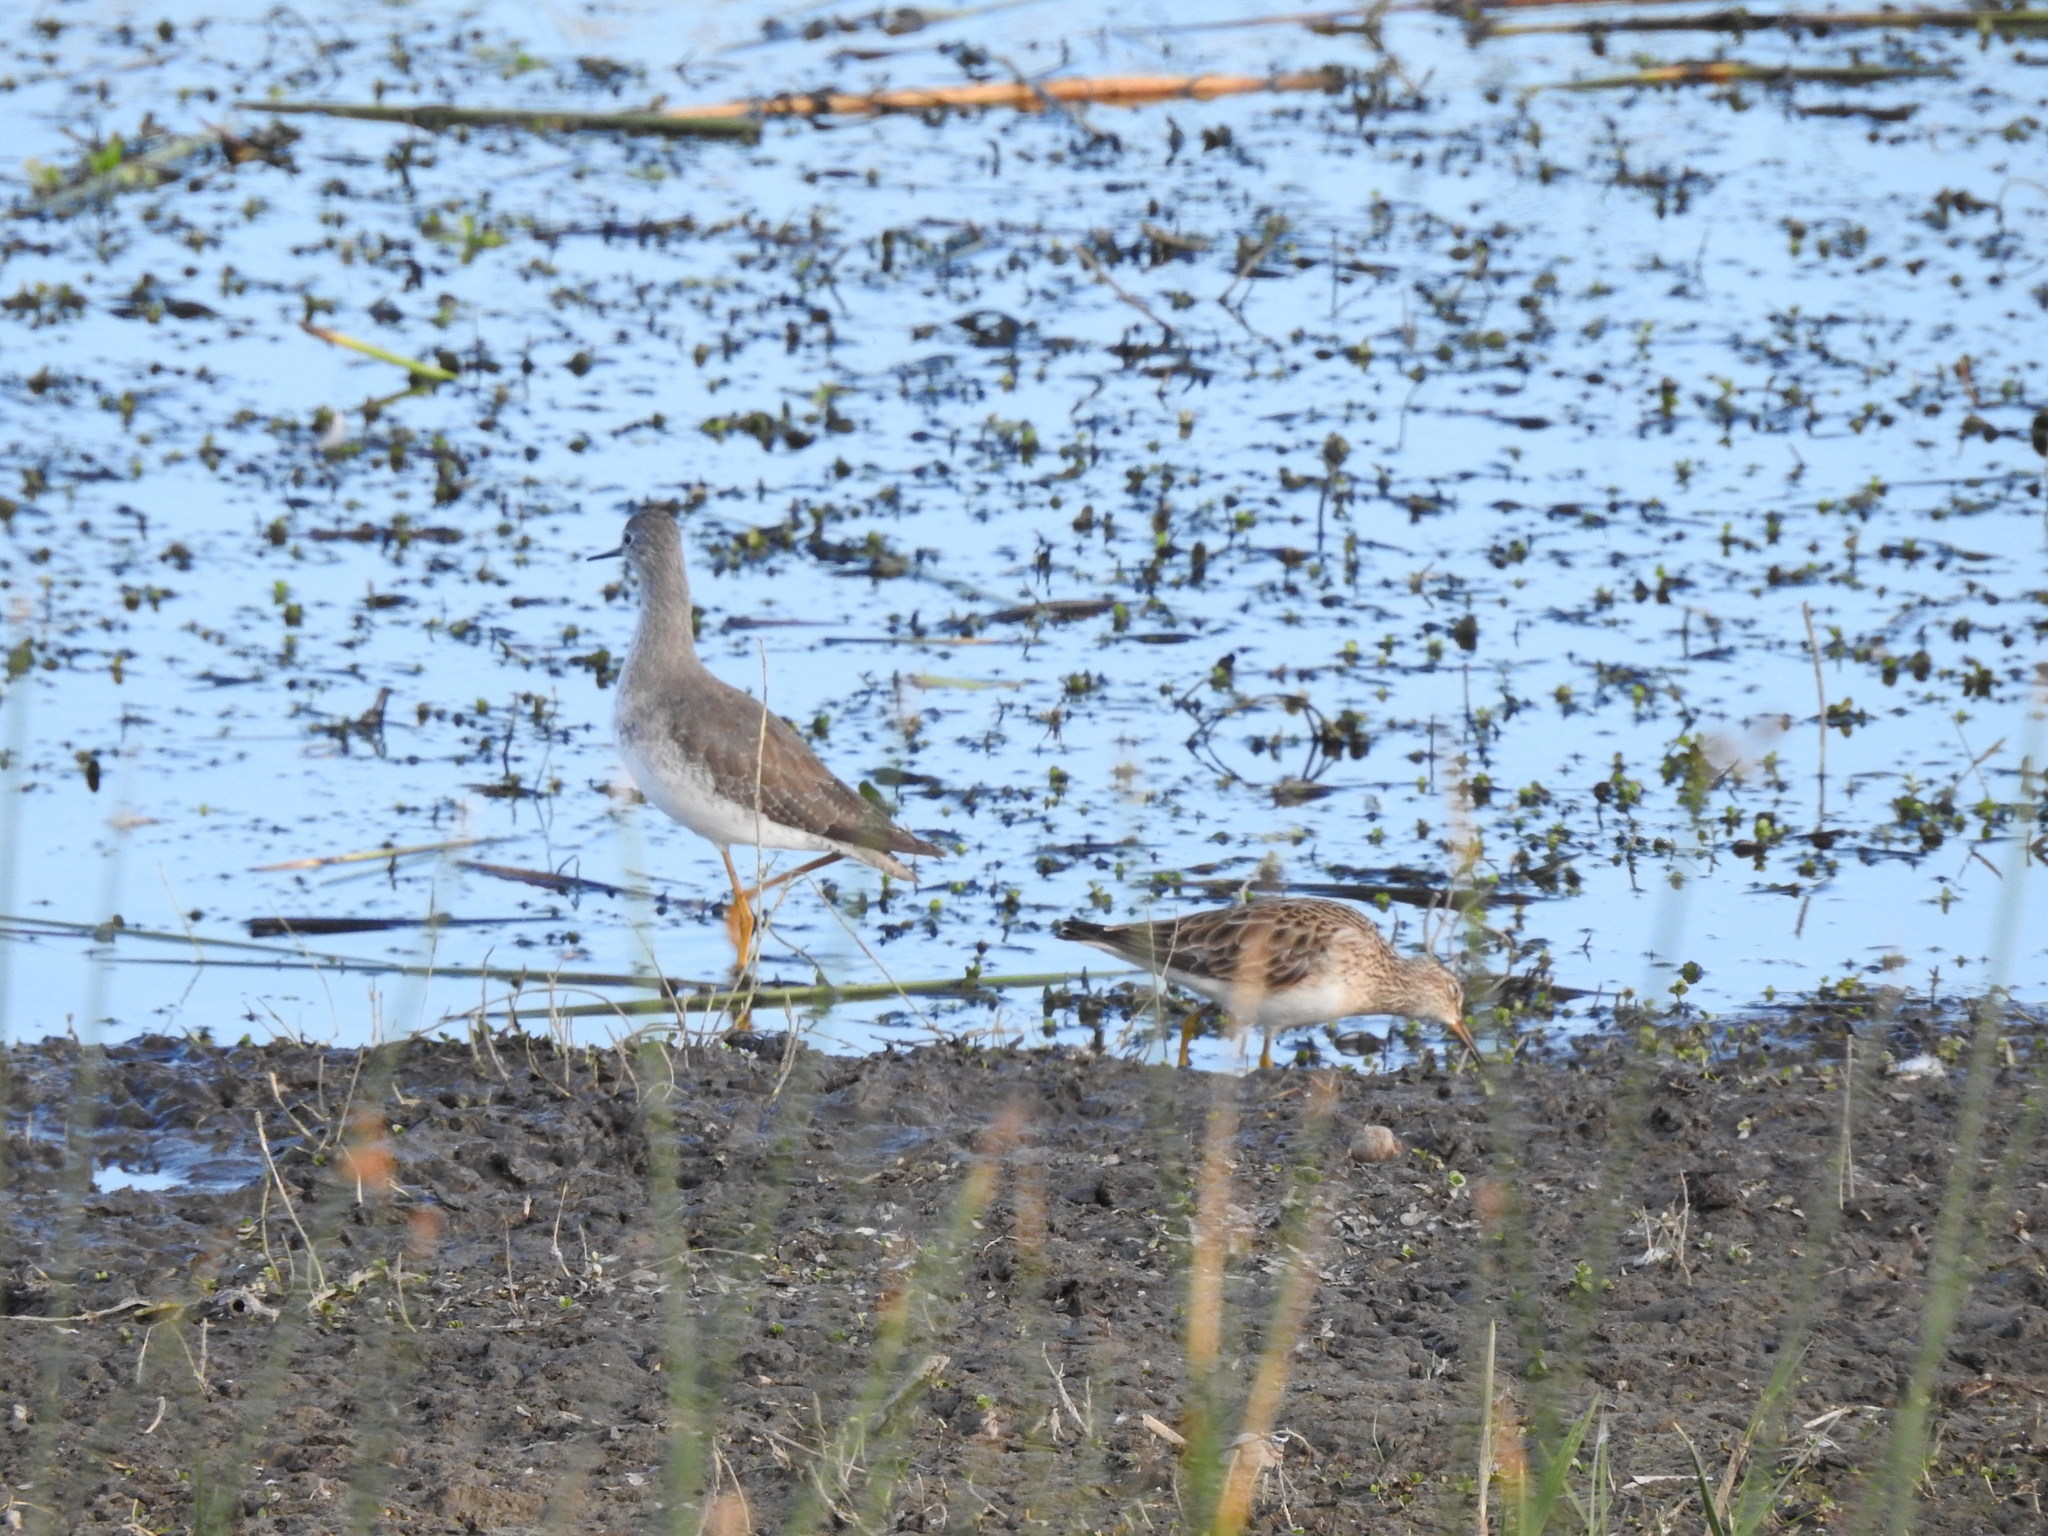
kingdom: Animalia
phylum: Chordata
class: Aves
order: Charadriiformes
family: Scolopacidae
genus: Tringa
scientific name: Tringa flavipes
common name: Lesser yellowlegs
